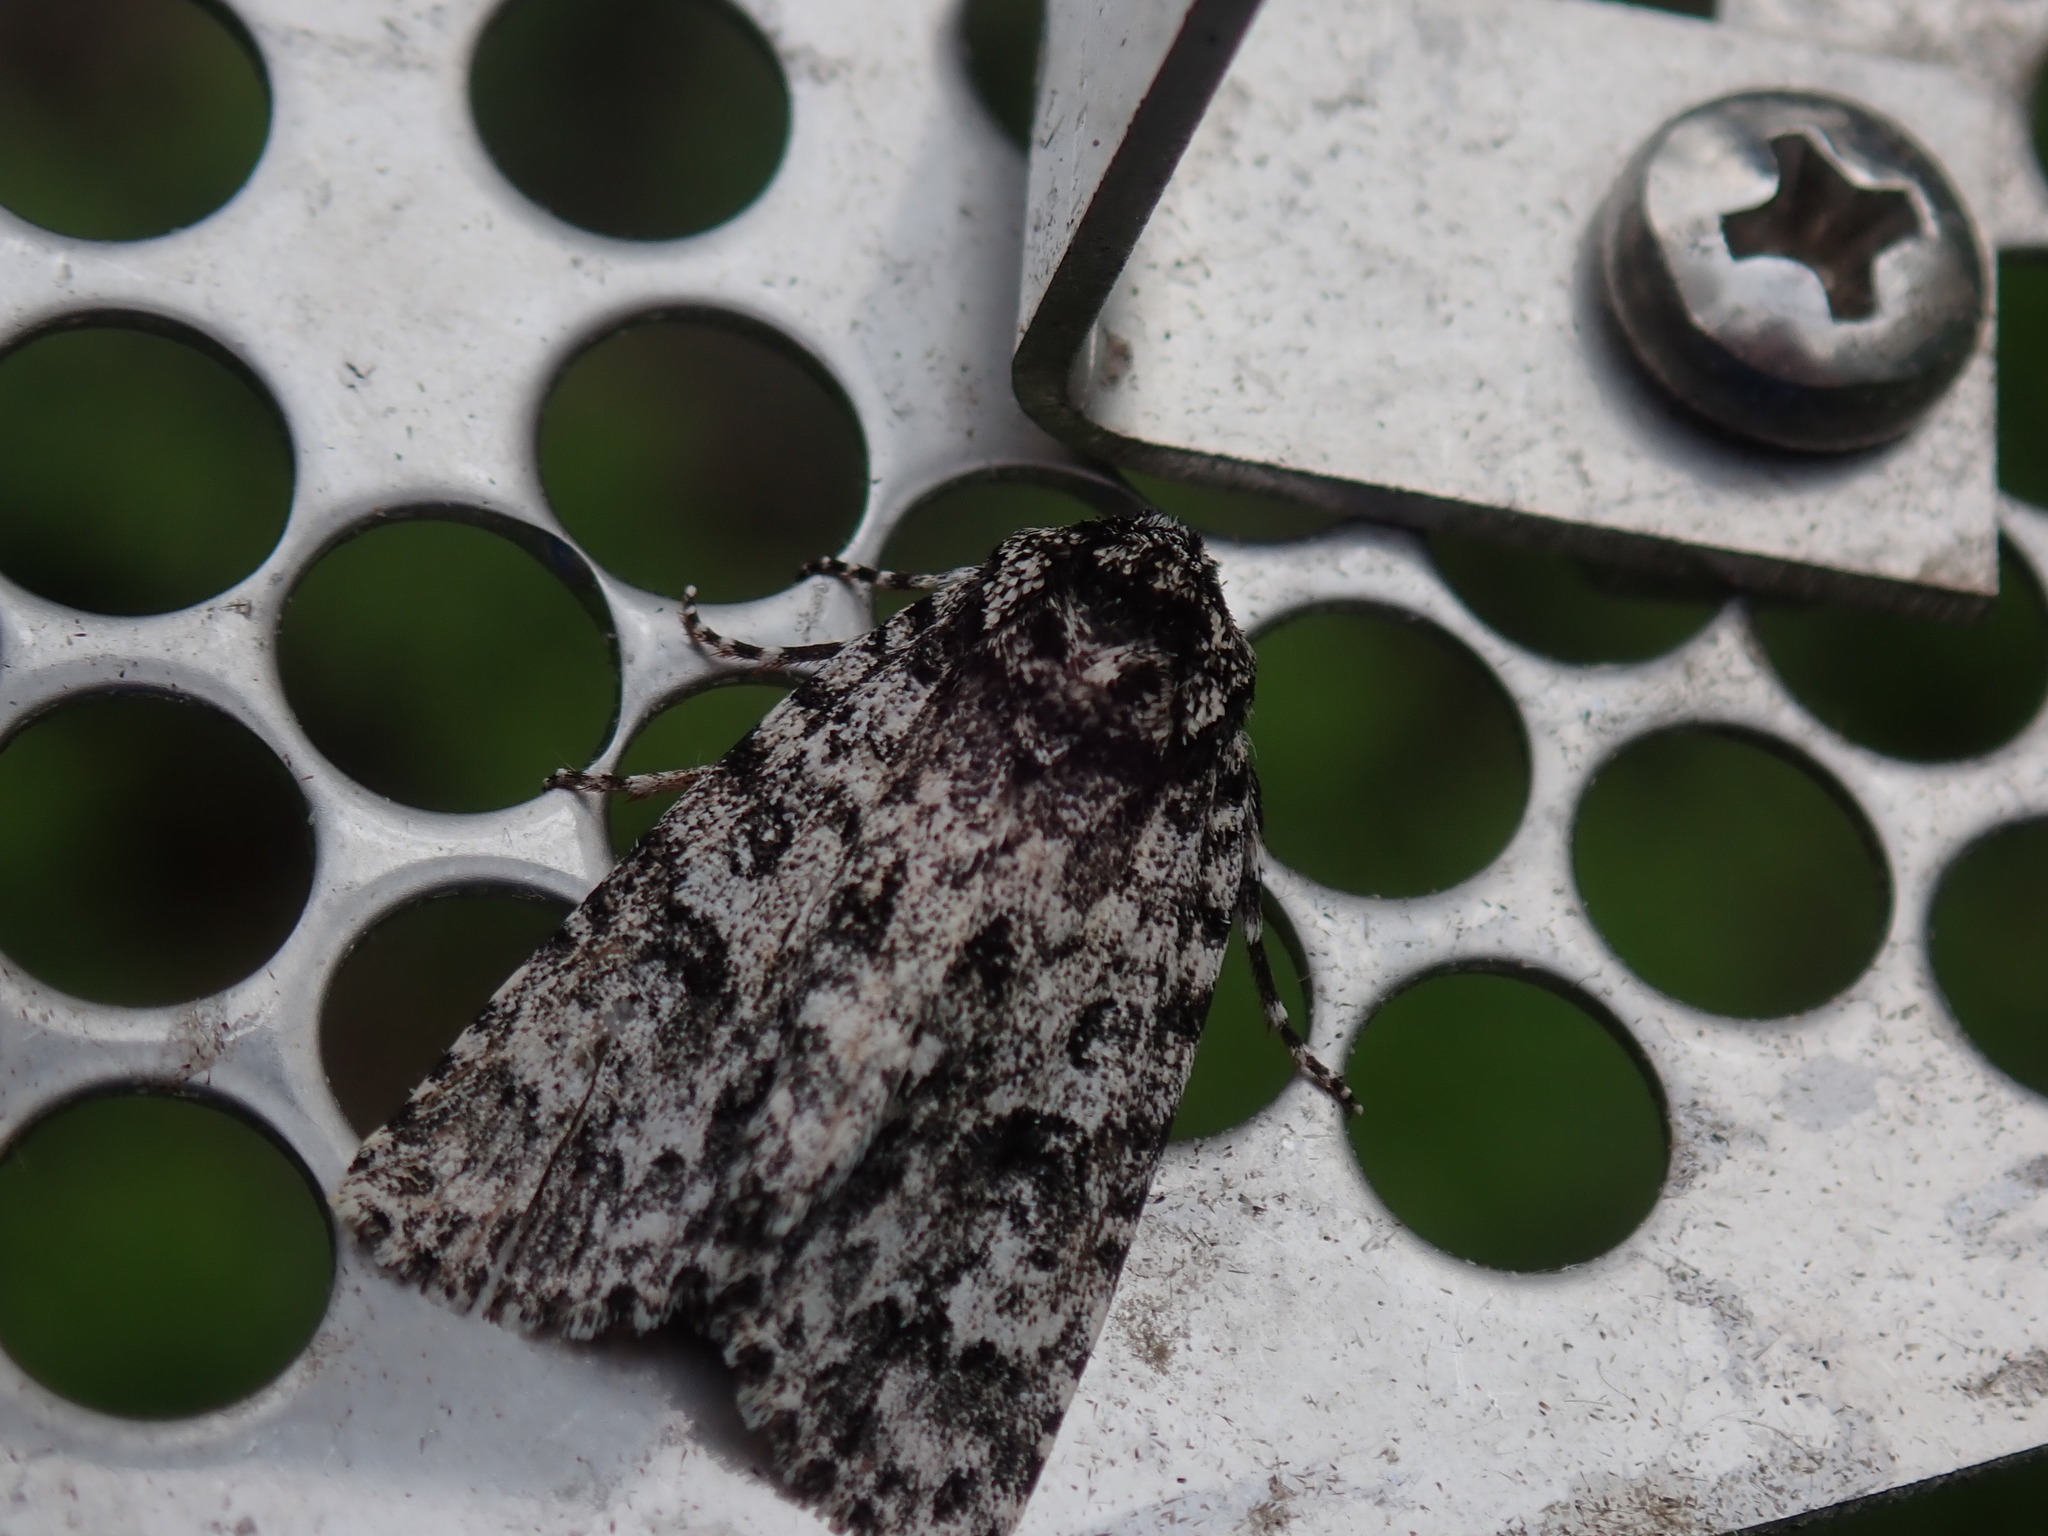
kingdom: Animalia
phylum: Arthropoda
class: Insecta
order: Lepidoptera
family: Noctuidae
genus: Acronicta
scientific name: Acronicta noctivaga
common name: Night-wandering dagger
